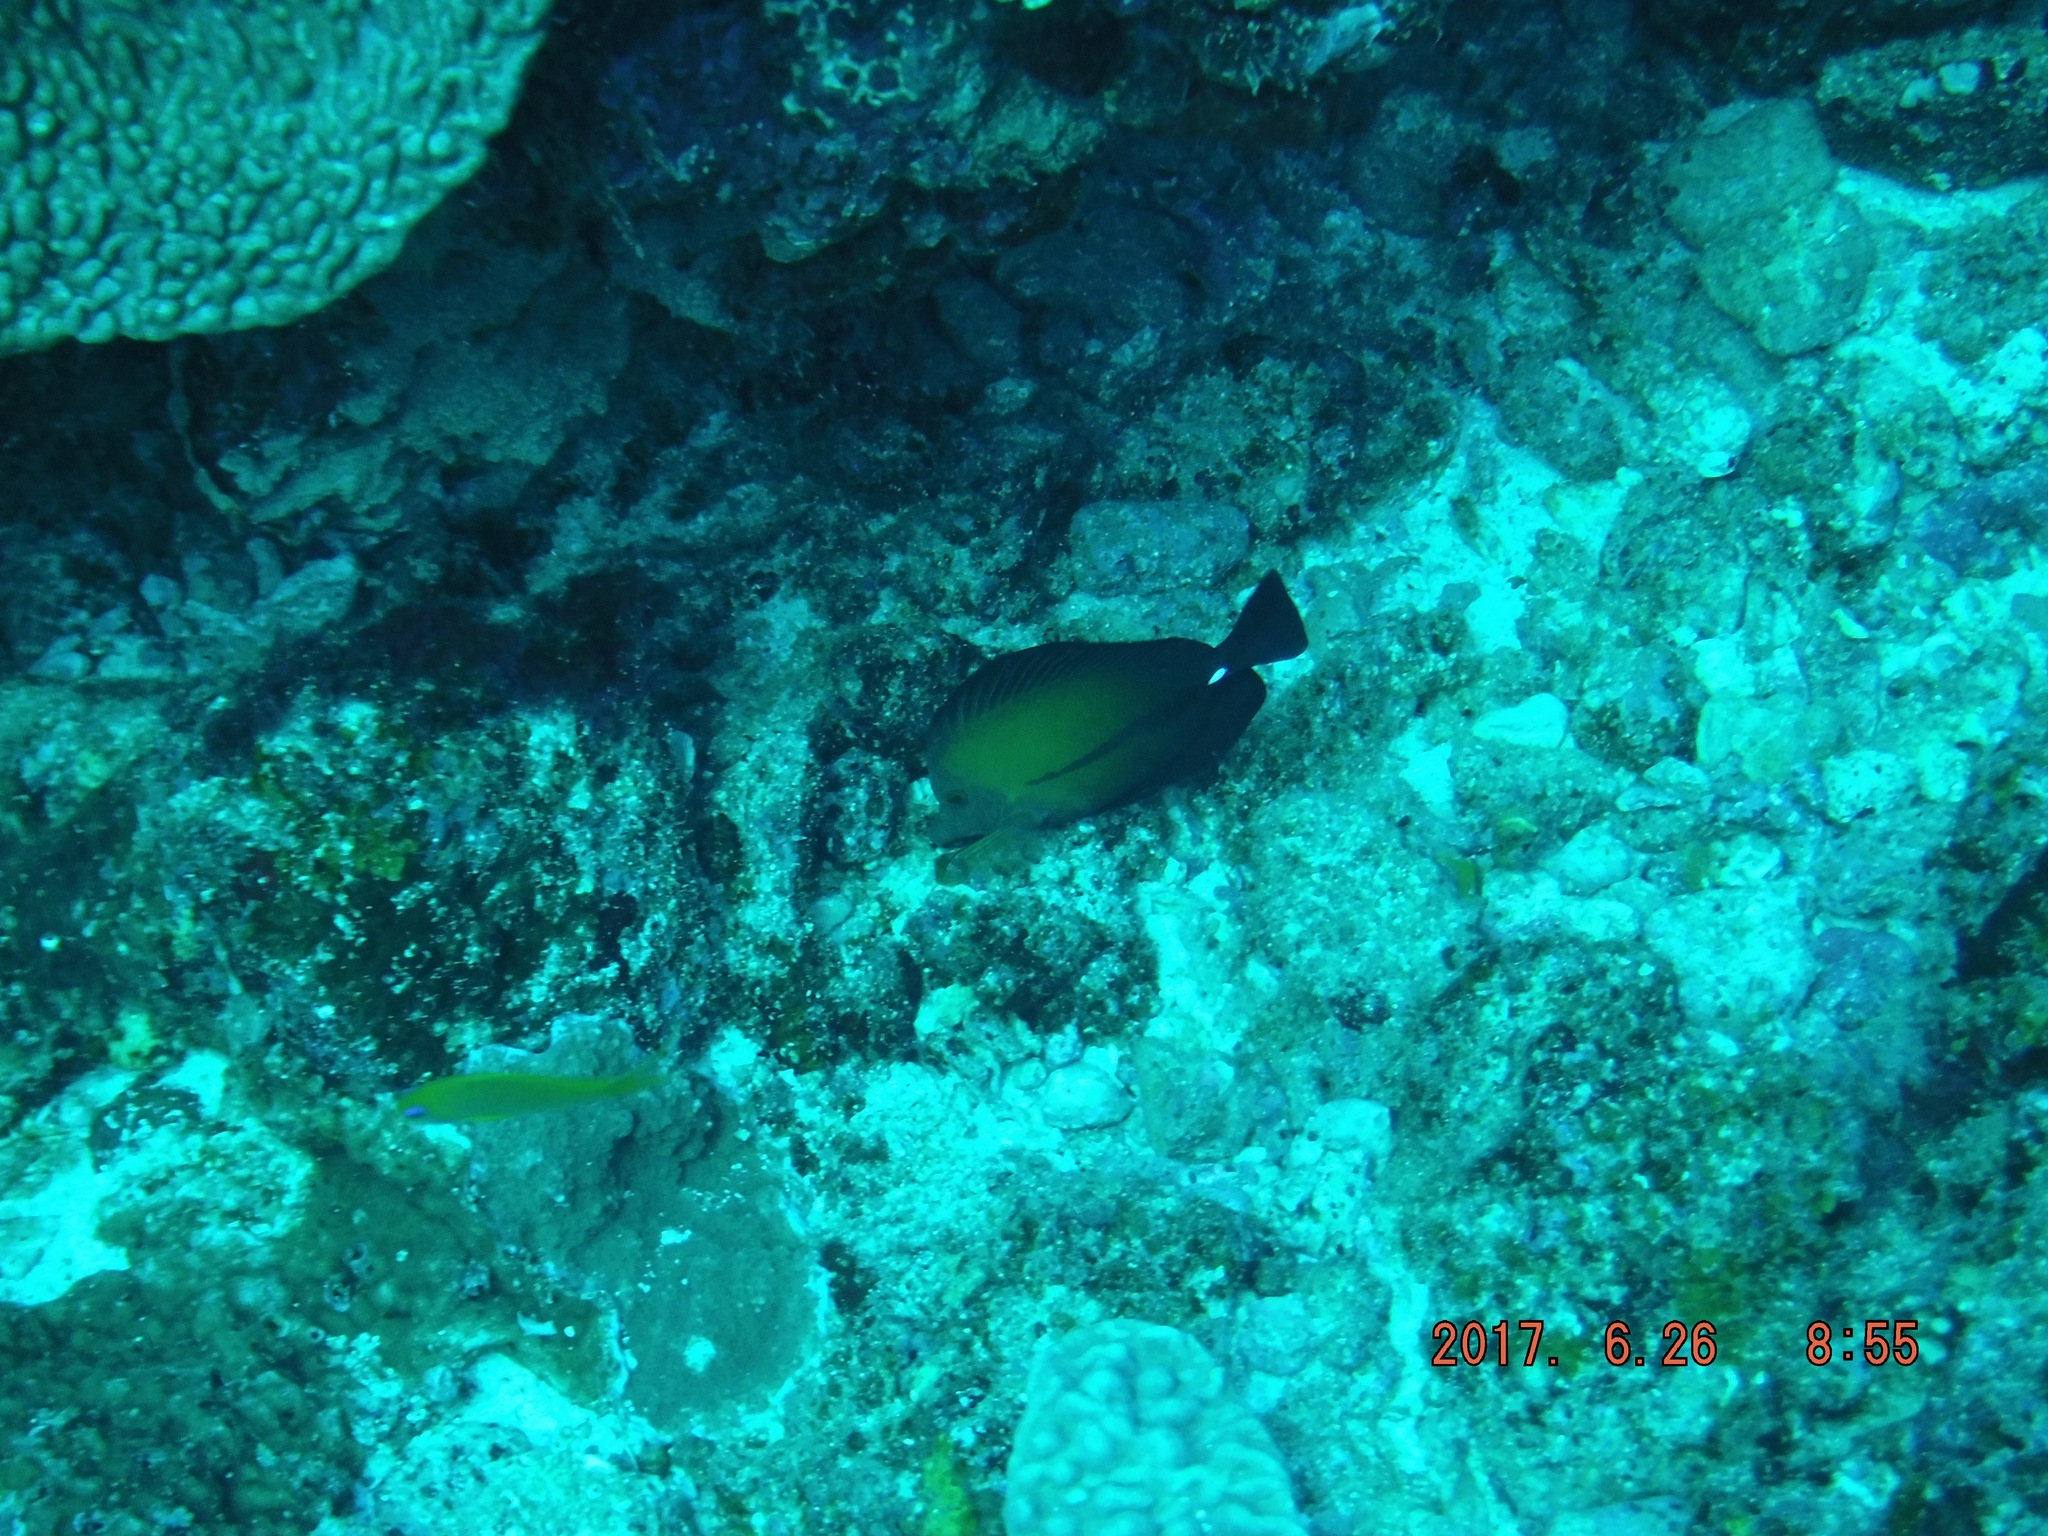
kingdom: Animalia
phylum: Chordata
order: Perciformes
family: Acanthuridae
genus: Zebrasoma
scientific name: Zebrasoma scopas
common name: Twotone tang
